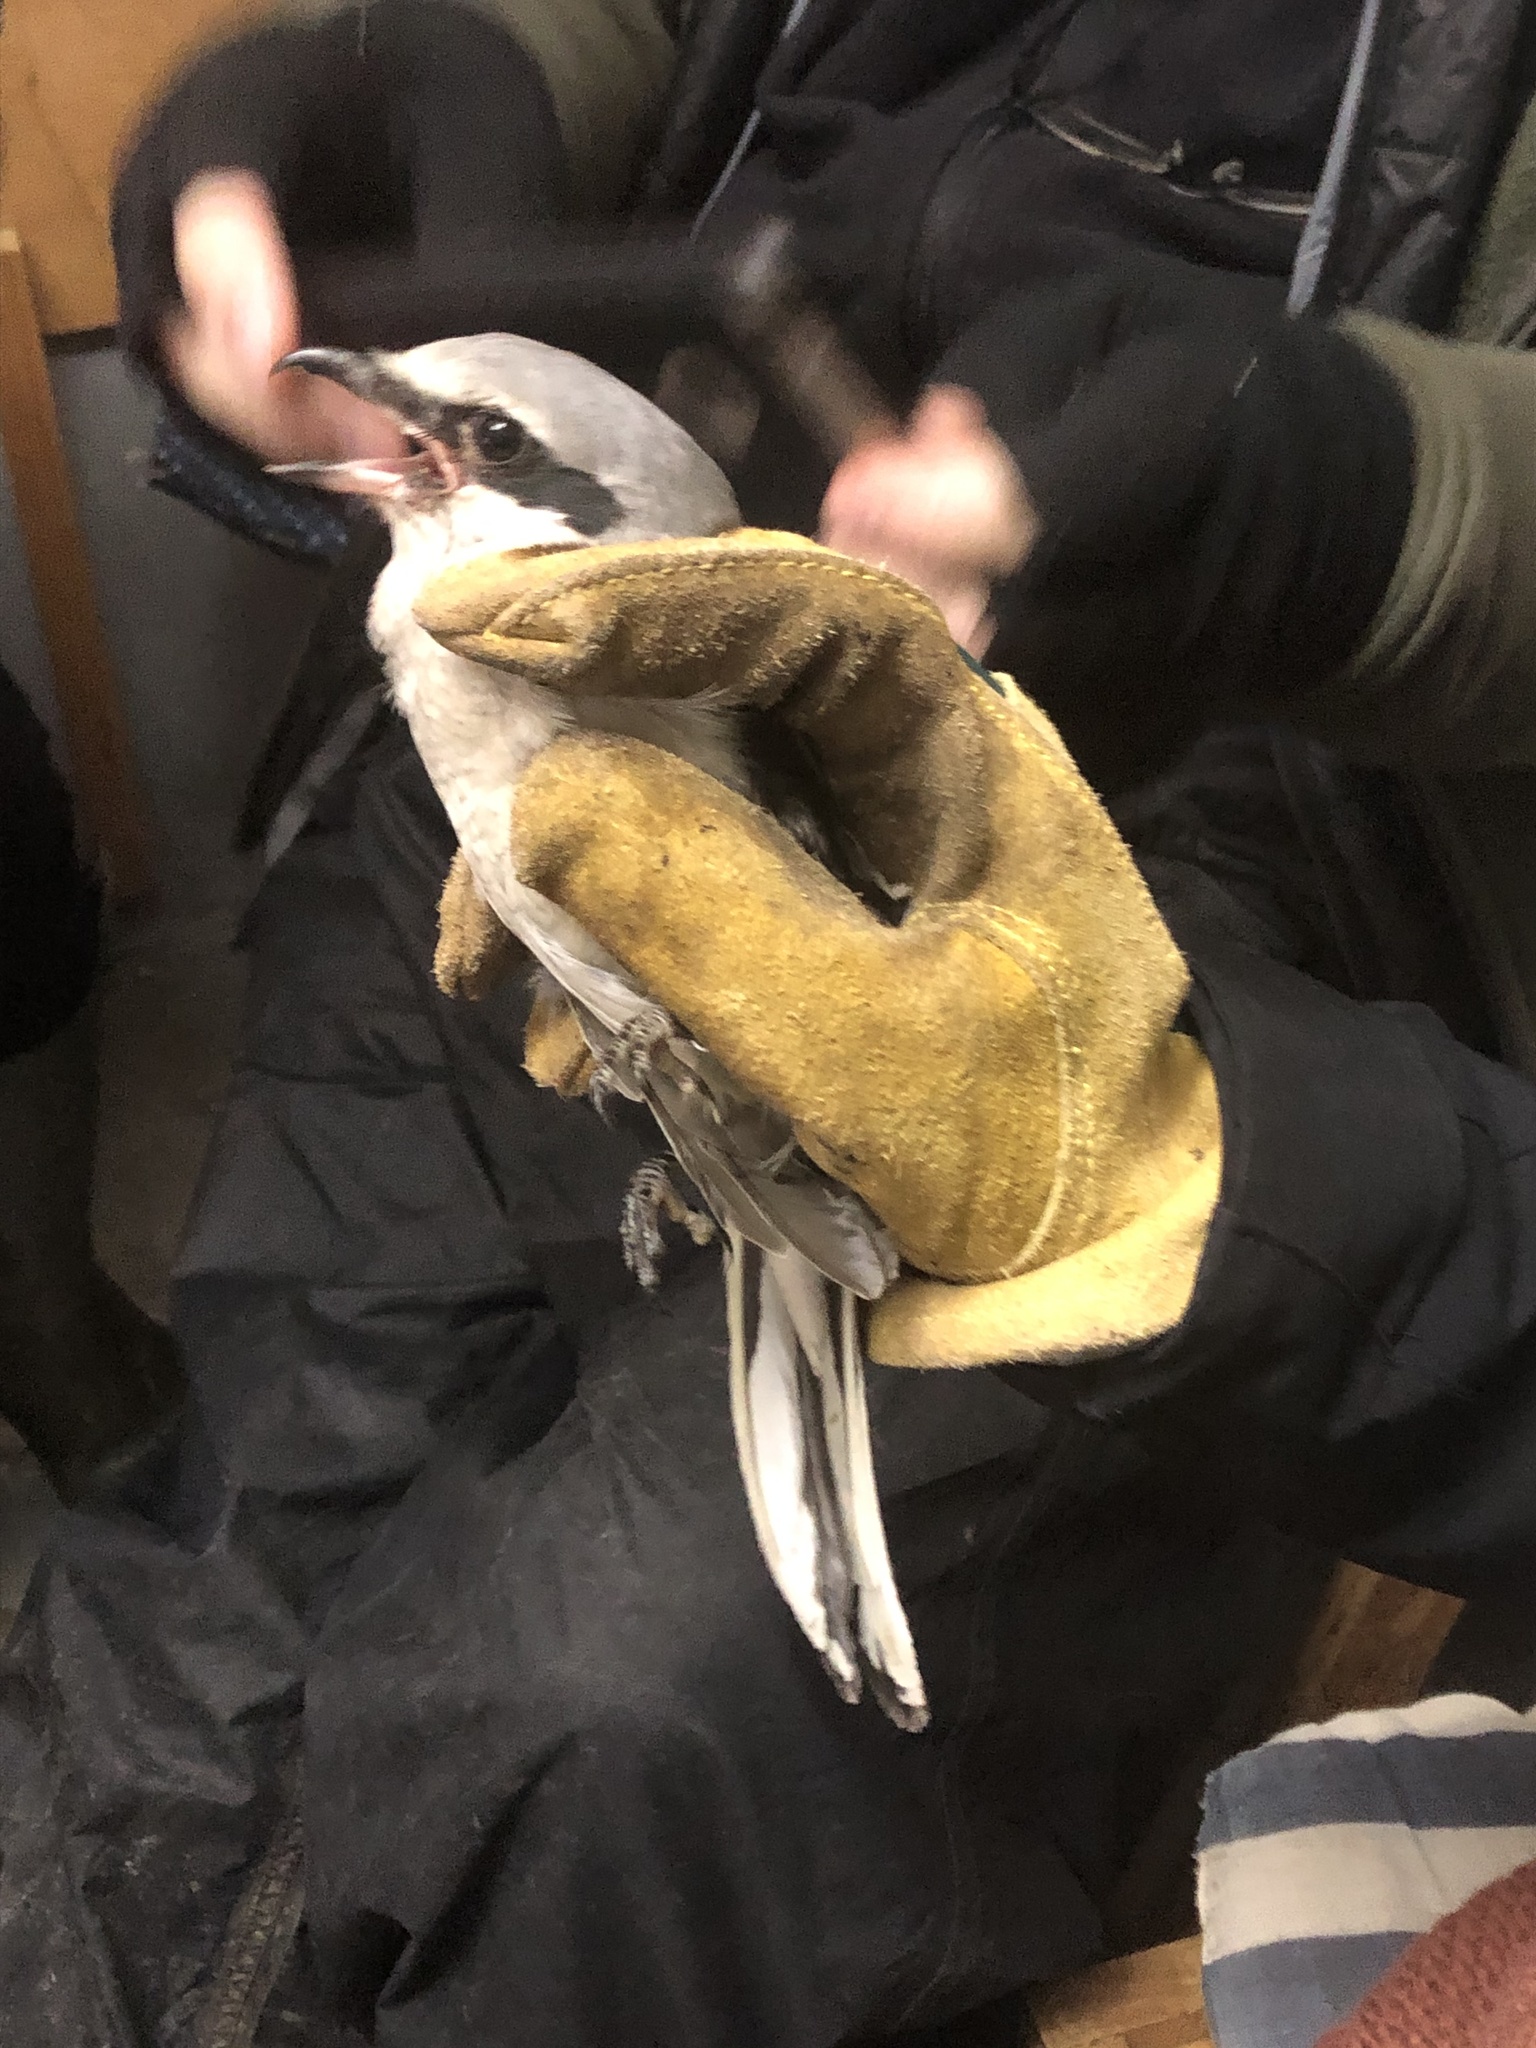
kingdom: Animalia
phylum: Chordata
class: Aves
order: Passeriformes
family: Laniidae
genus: Lanius
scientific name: Lanius excubitor
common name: Great grey shrike
